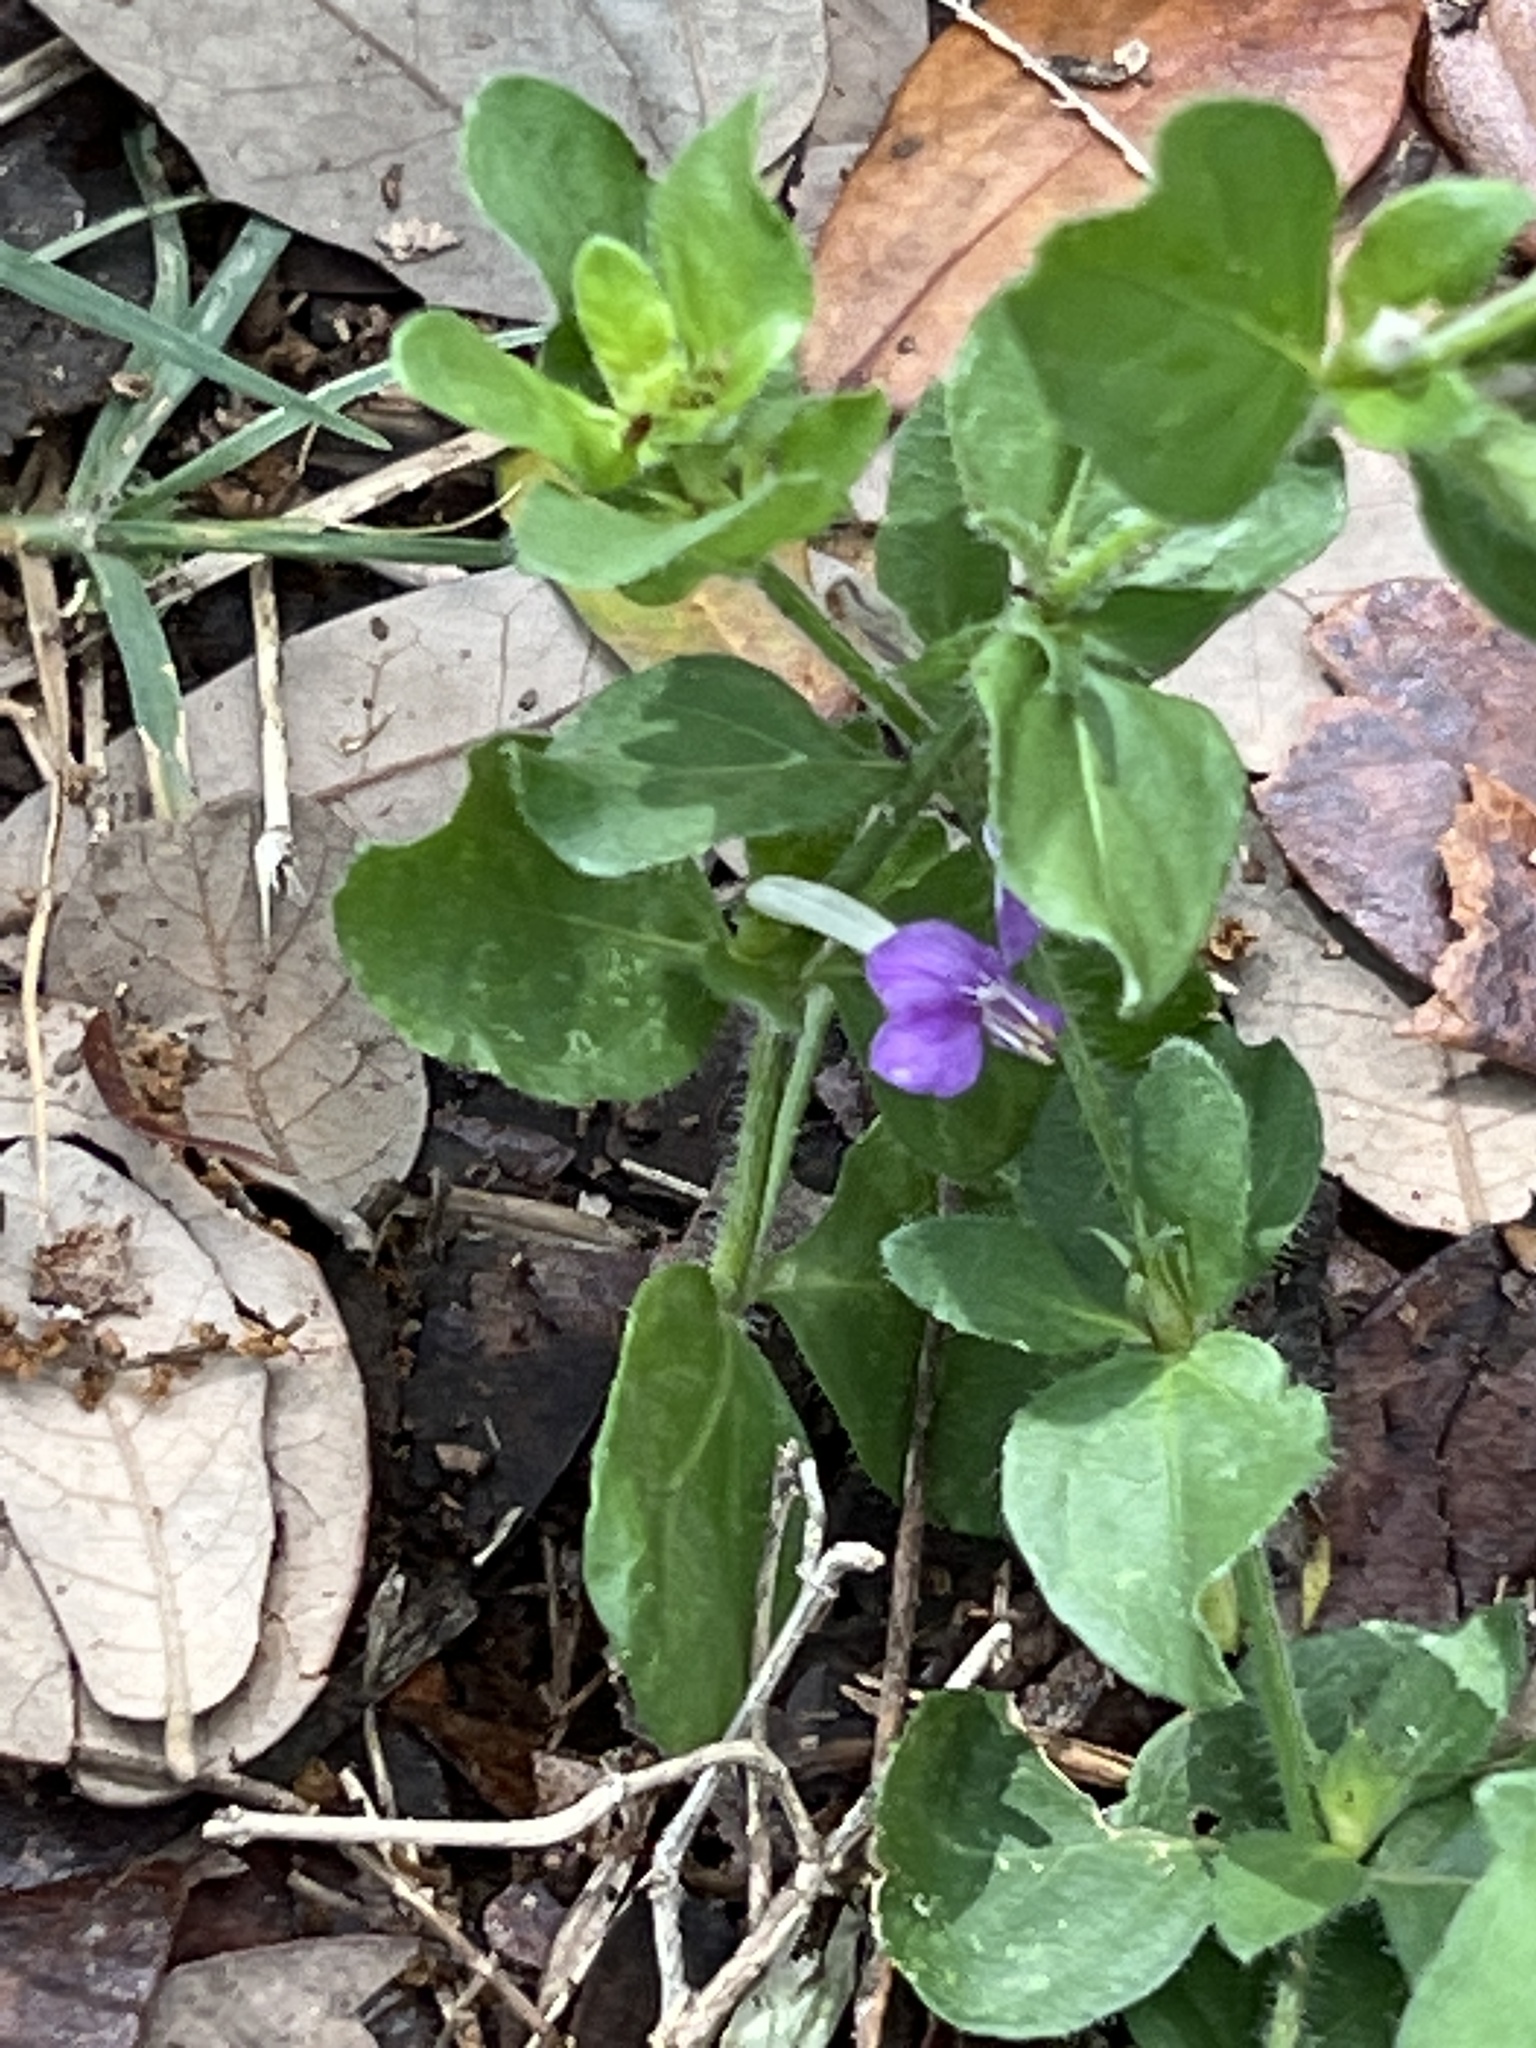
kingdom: Plantae
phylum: Tracheophyta
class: Magnoliopsida
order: Lamiales
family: Acanthaceae
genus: Dicliptera
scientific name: Dicliptera brachiata
